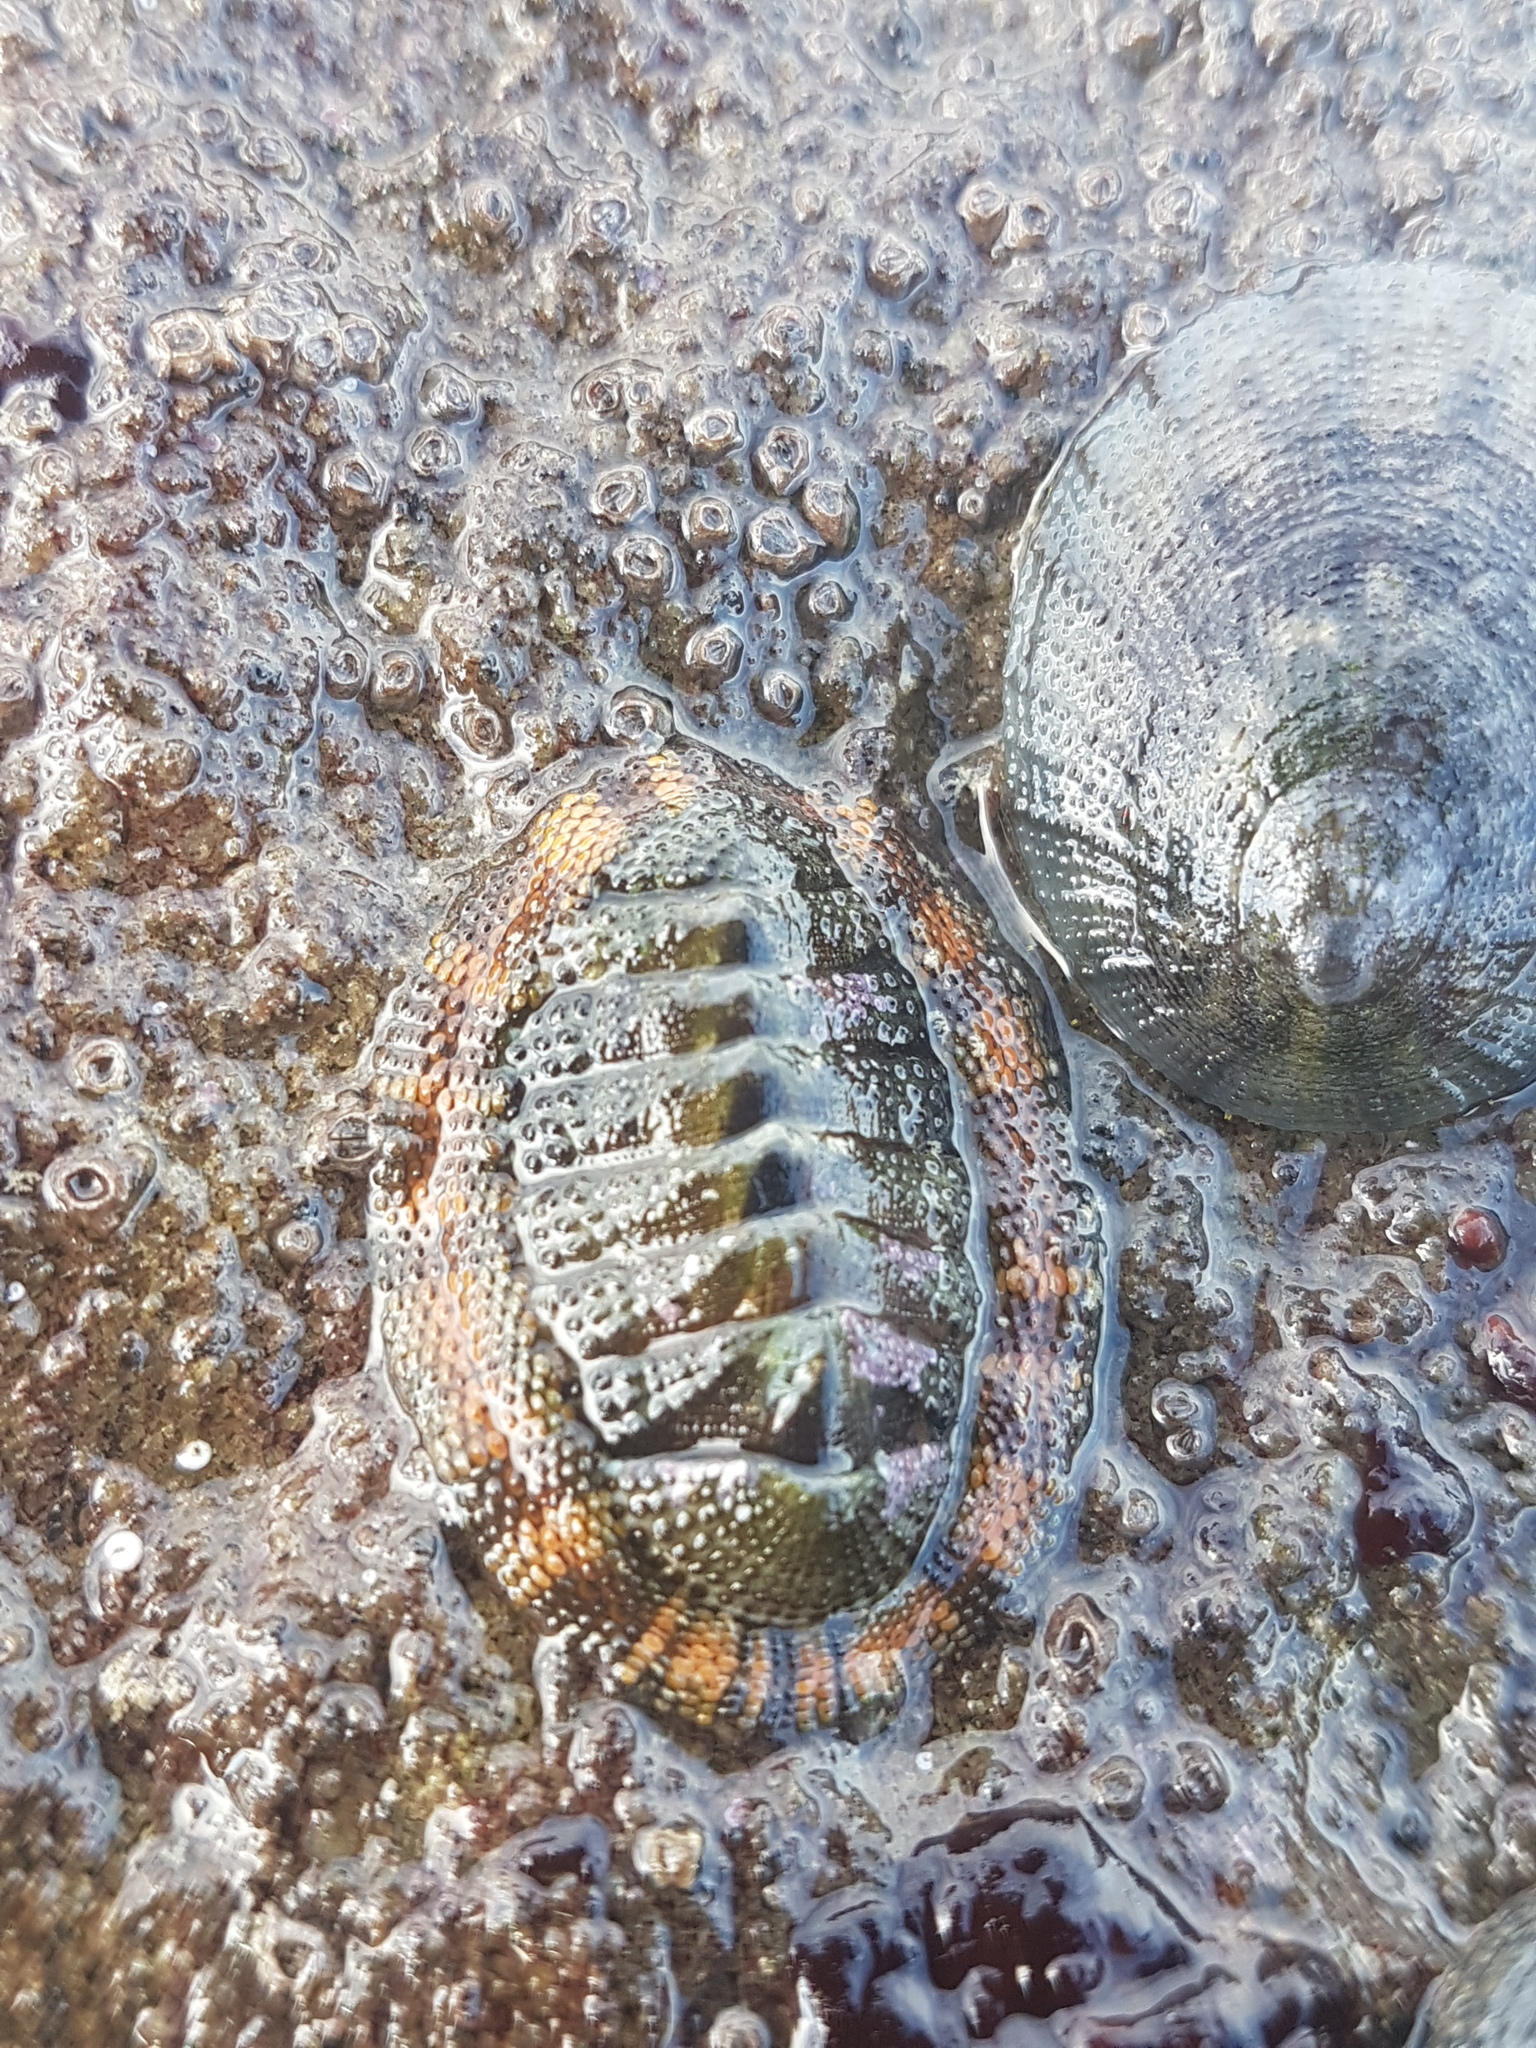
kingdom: Animalia
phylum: Mollusca
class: Polyplacophora
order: Chitonida
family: Chitonidae
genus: Sypharochiton
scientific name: Sypharochiton sinclairi
